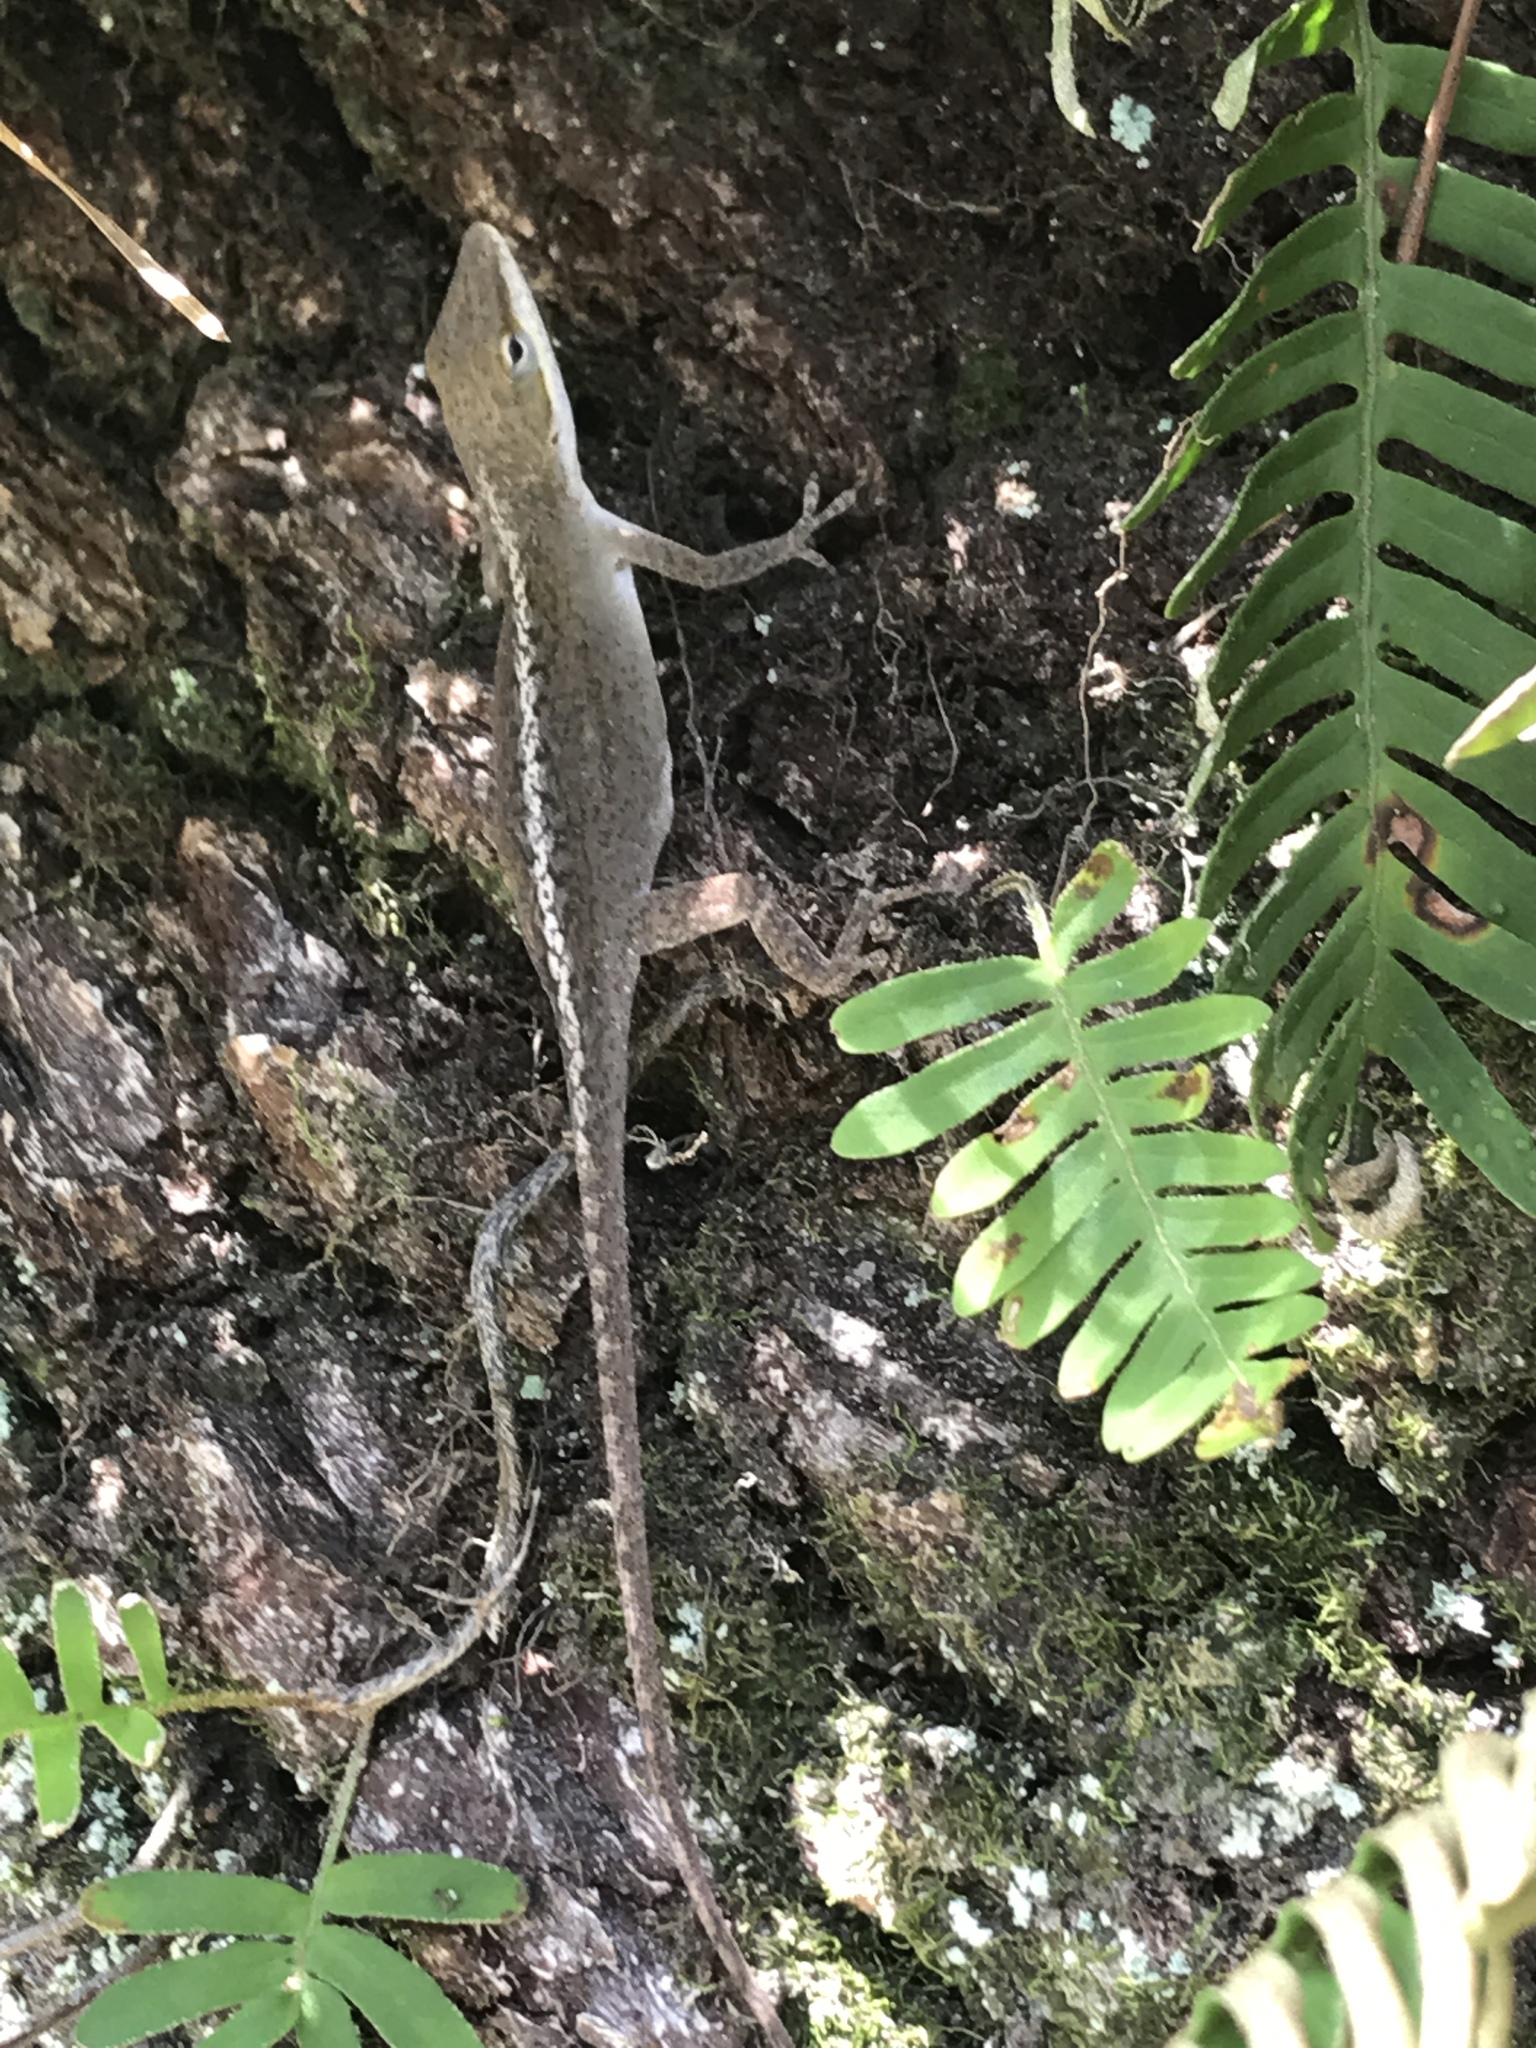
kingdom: Animalia
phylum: Chordata
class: Squamata
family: Dactyloidae
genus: Anolis
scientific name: Anolis carolinensis
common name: Green anole
